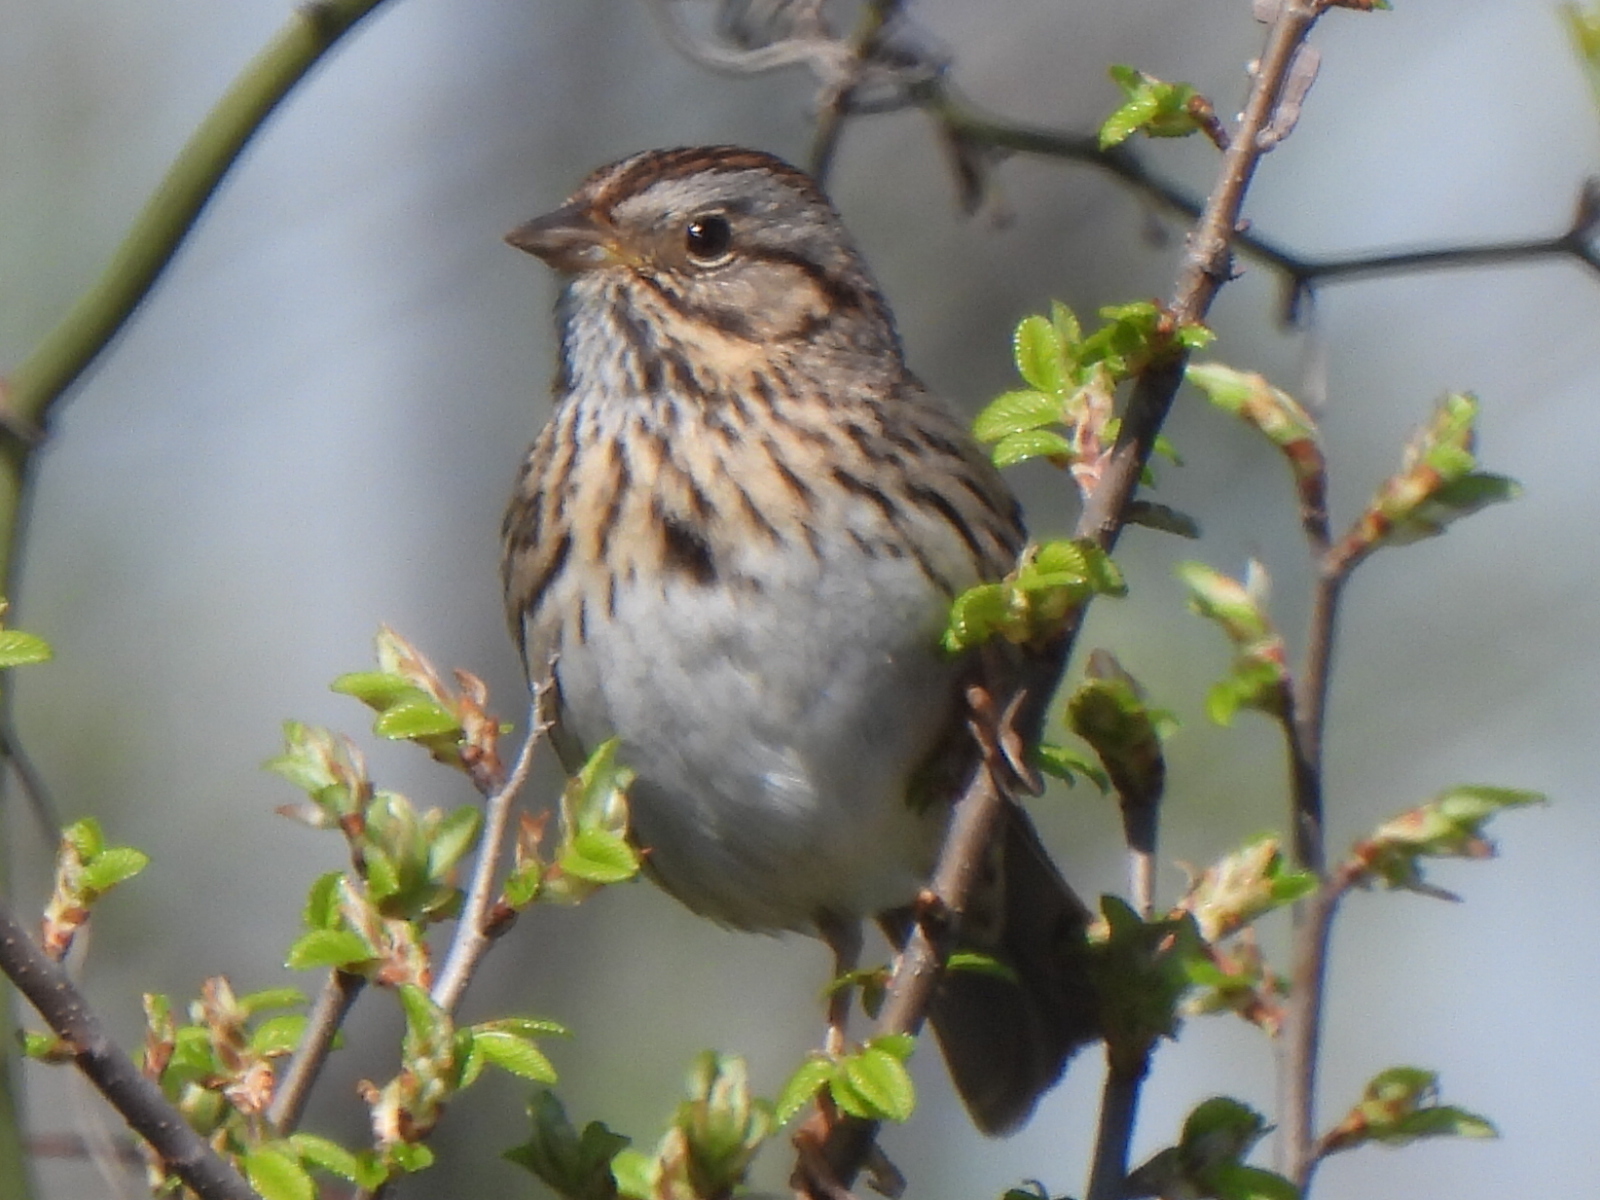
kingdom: Animalia
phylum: Chordata
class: Aves
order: Passeriformes
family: Passerellidae
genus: Melospiza
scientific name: Melospiza lincolnii
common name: Lincoln's sparrow
